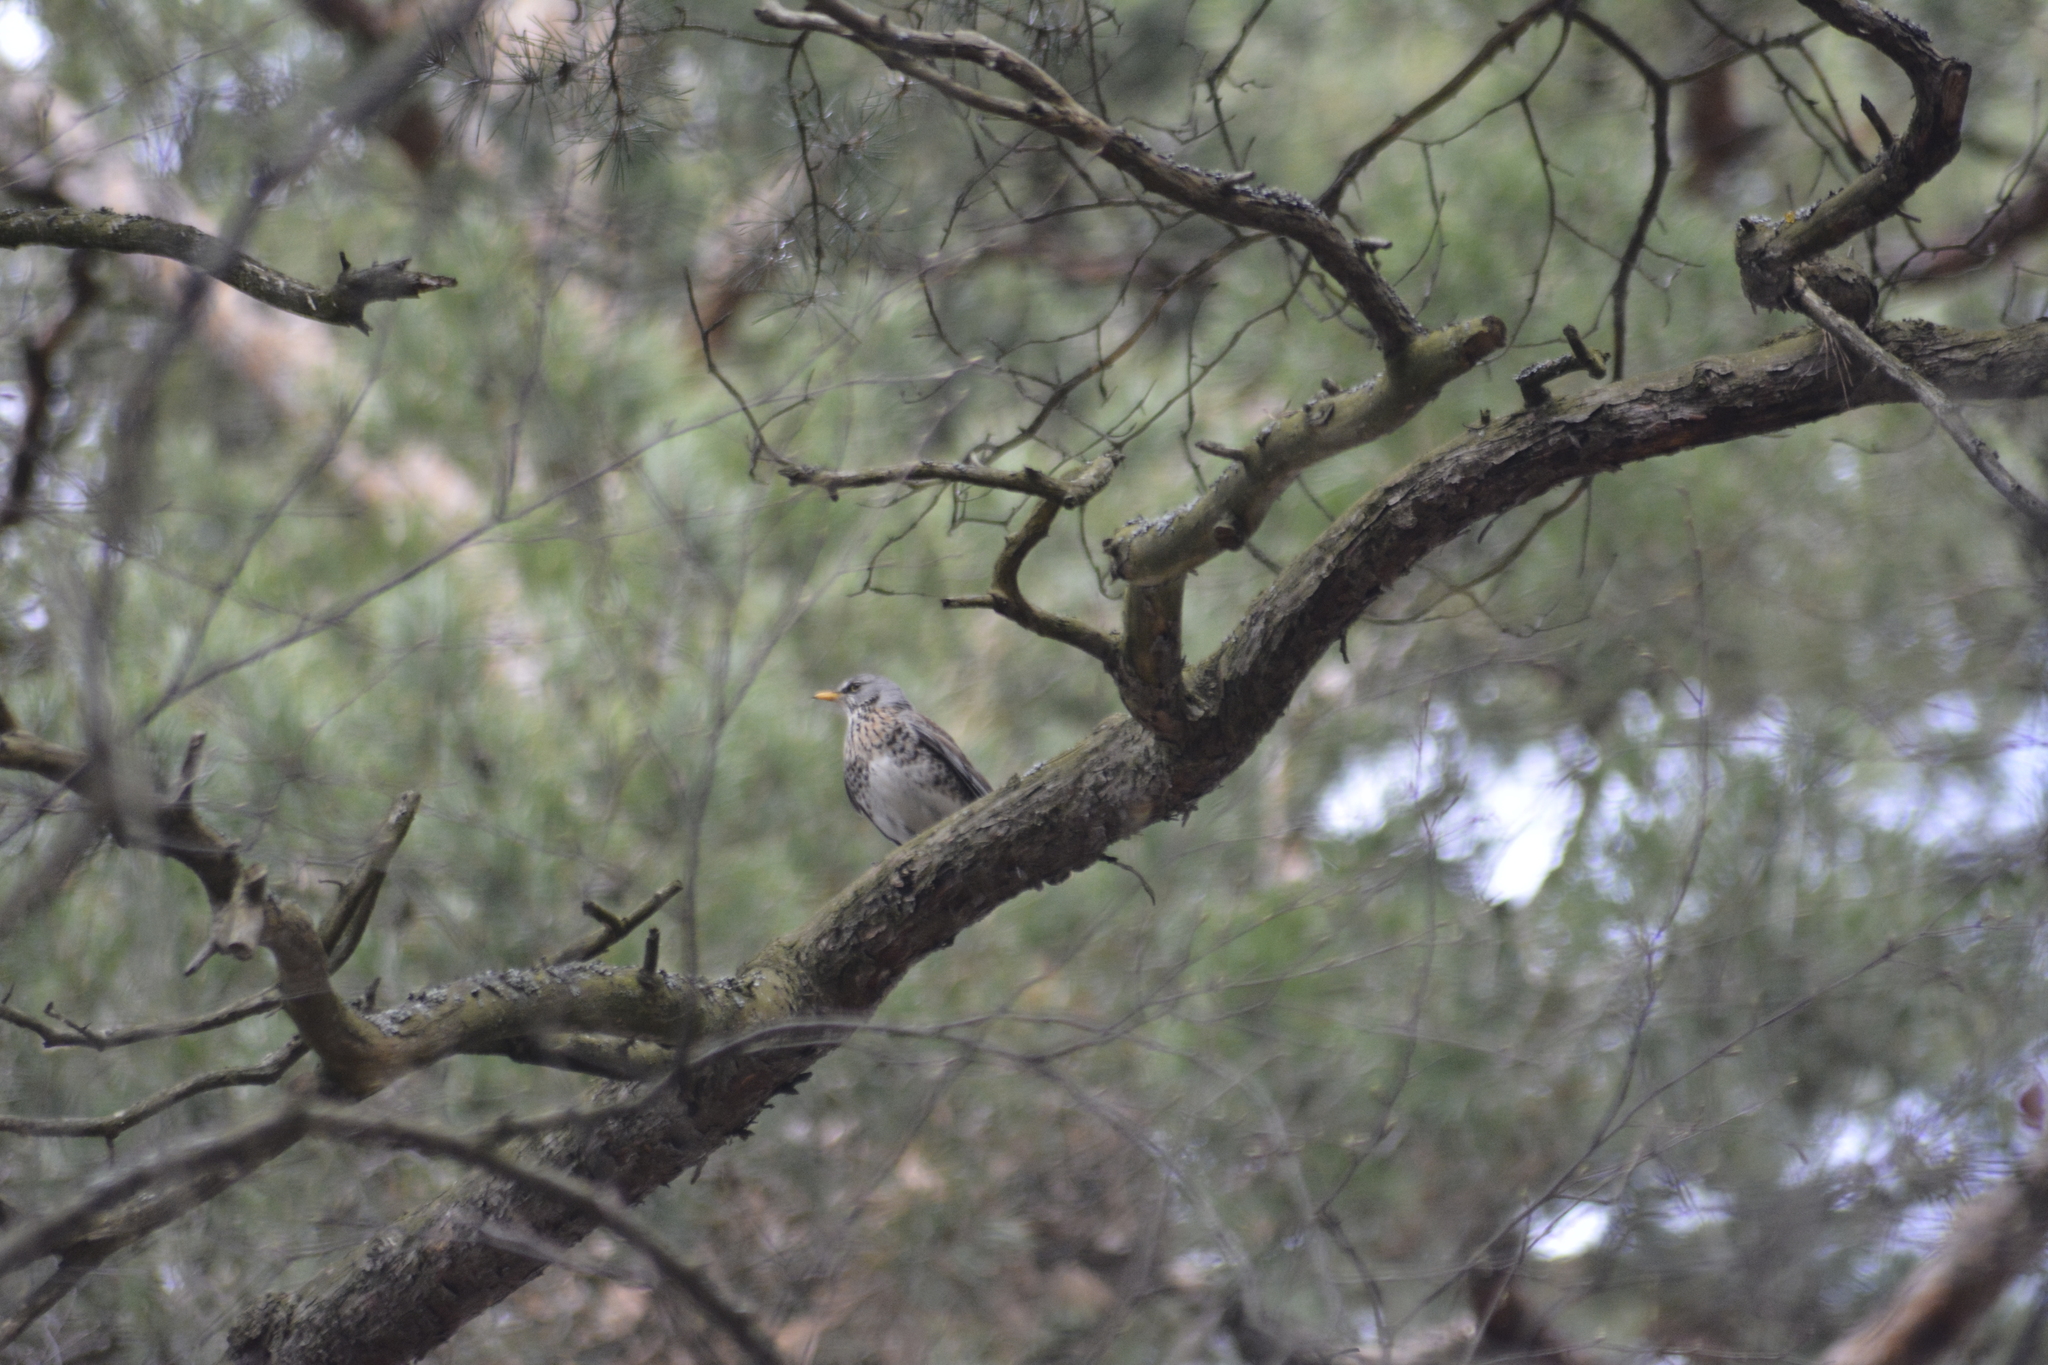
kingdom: Animalia
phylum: Chordata
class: Aves
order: Passeriformes
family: Turdidae
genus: Turdus
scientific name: Turdus pilaris
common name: Fieldfare
